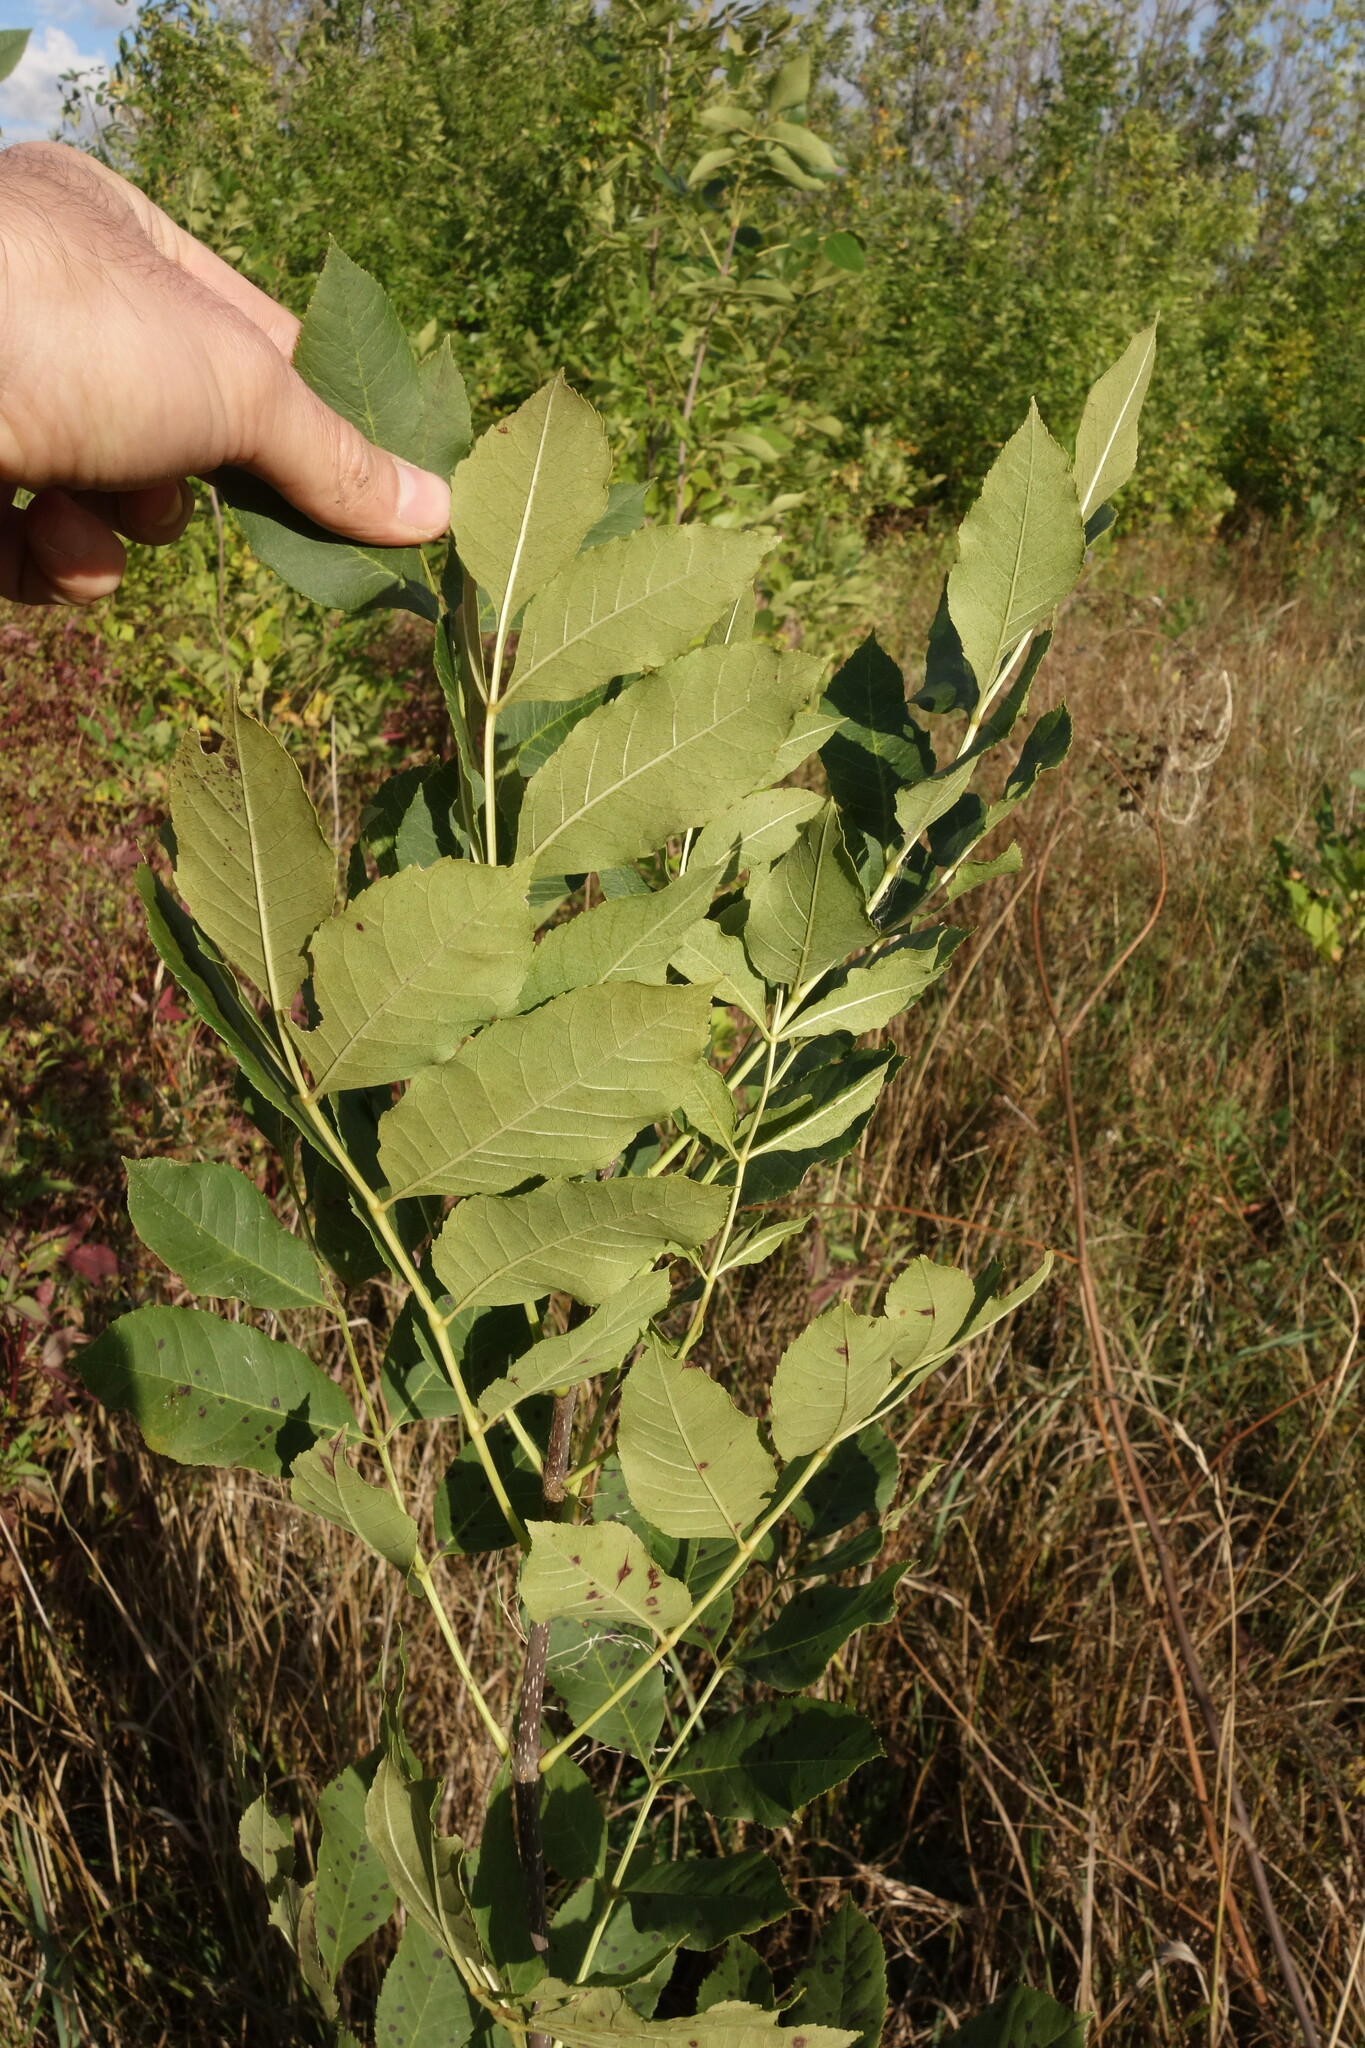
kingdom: Plantae
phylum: Tracheophyta
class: Magnoliopsida
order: Lamiales
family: Oleaceae
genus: Fraxinus
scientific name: Fraxinus pennsylvanica
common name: Green ash
